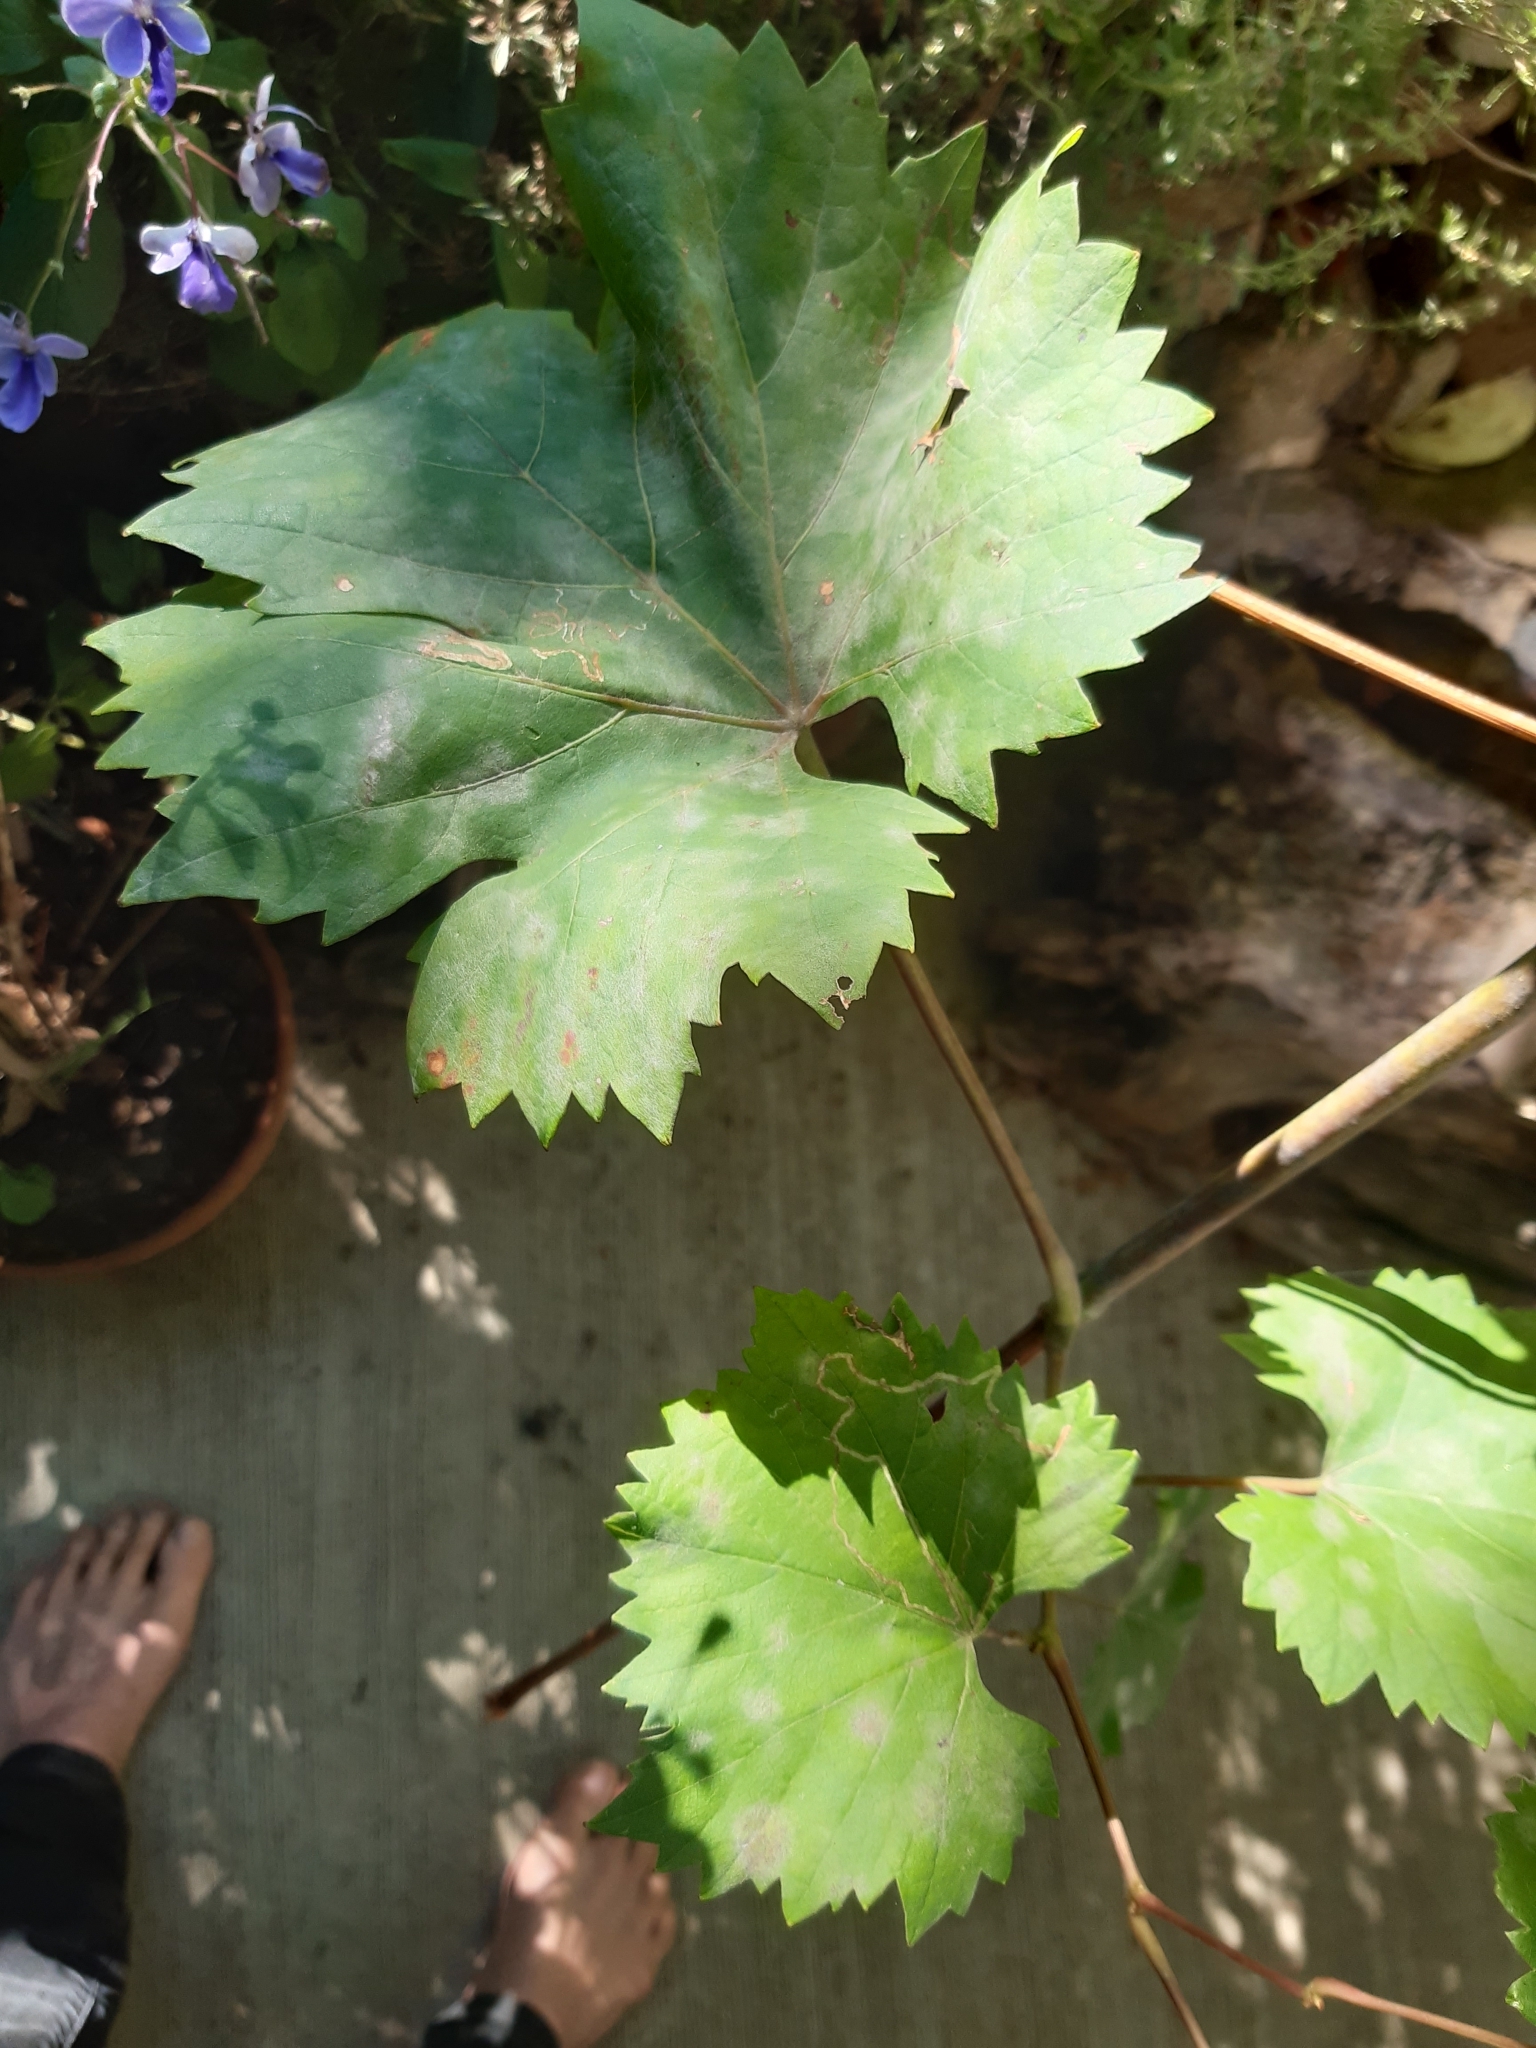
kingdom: Animalia
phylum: Arthropoda
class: Insecta
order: Lepidoptera
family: Gracillariidae
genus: Phyllocnistis
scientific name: Phyllocnistis vitegenella
